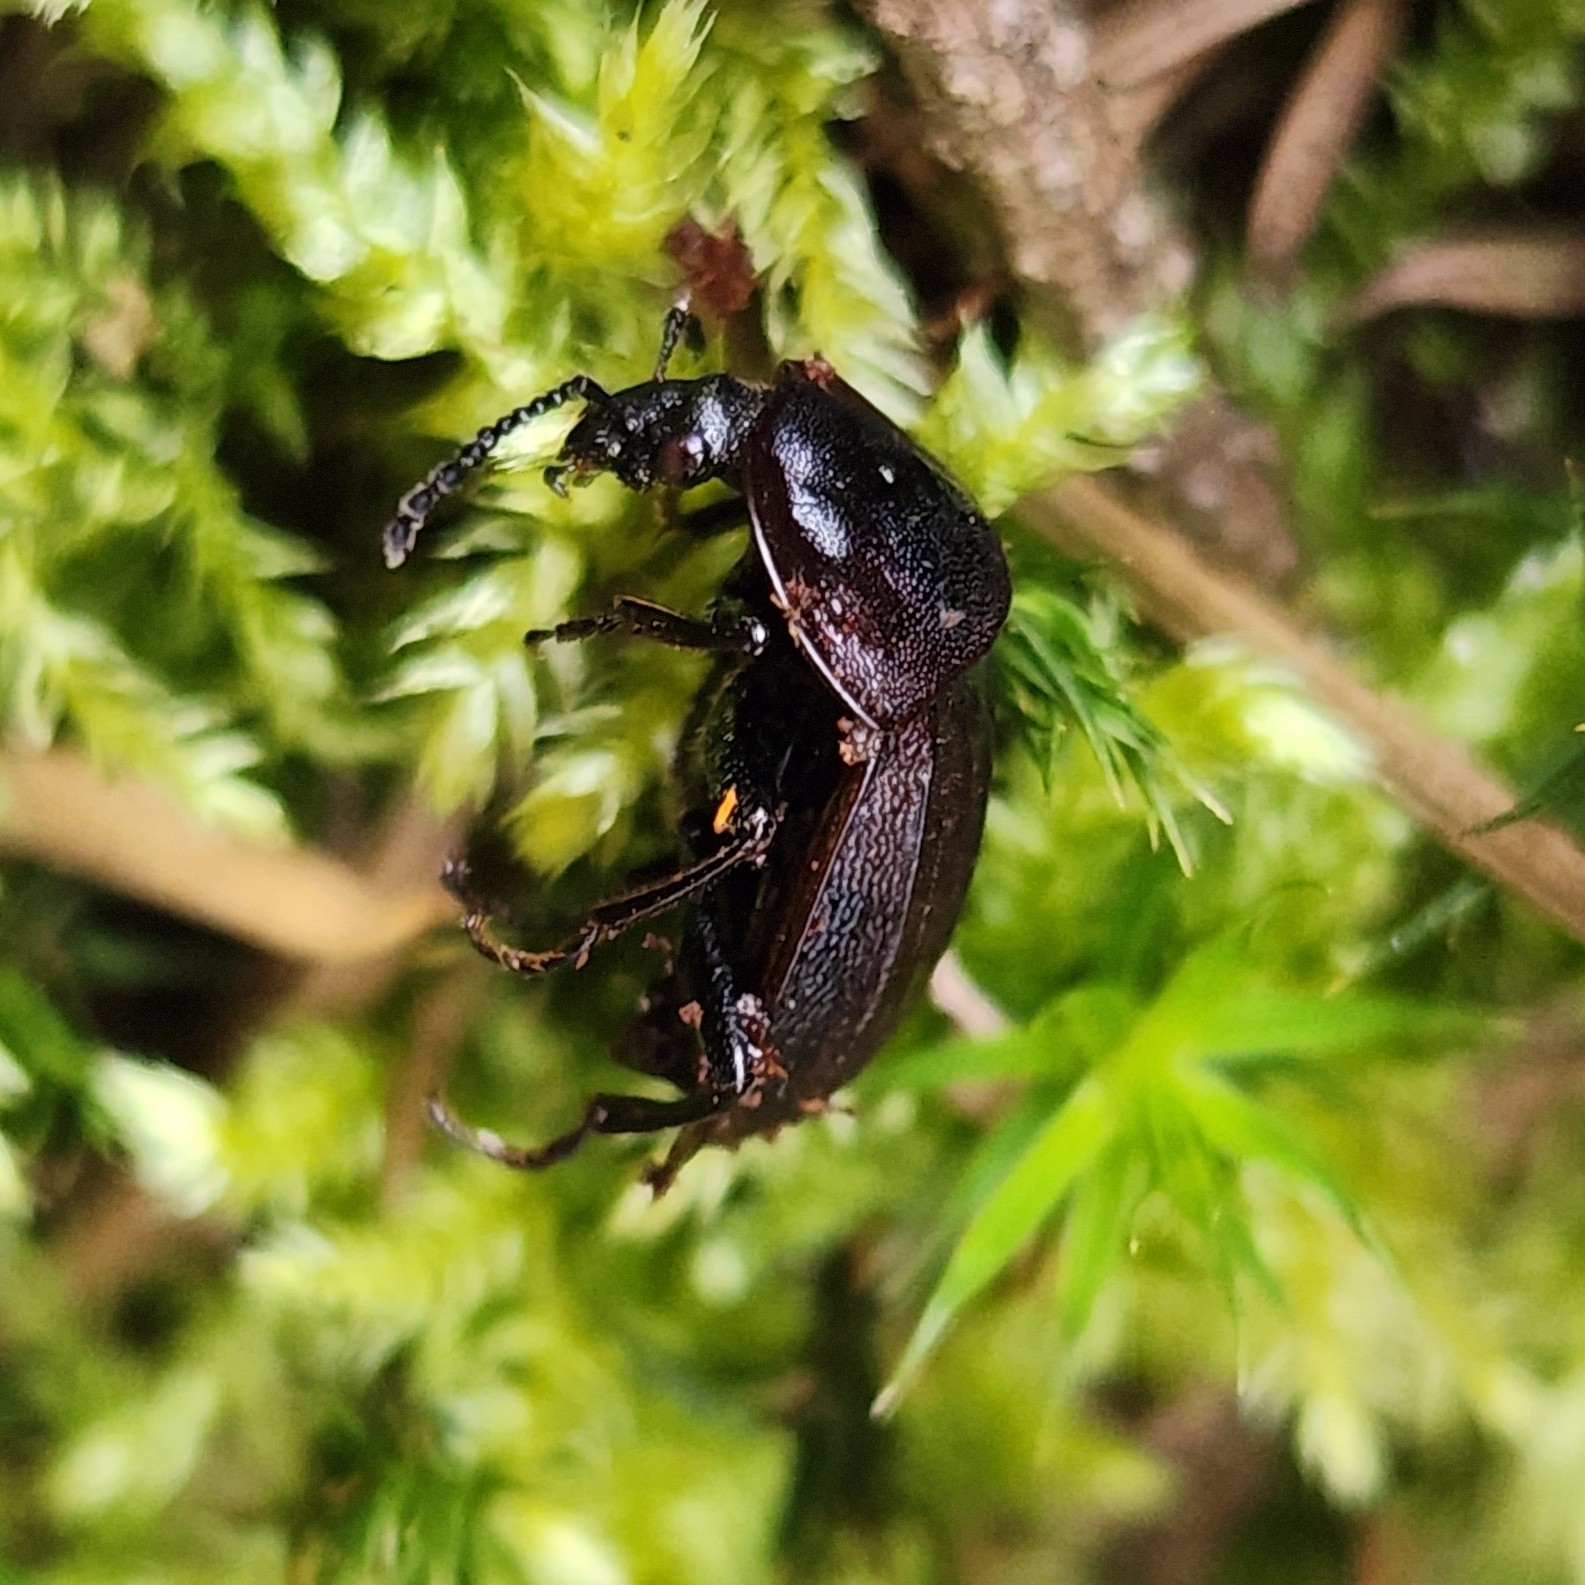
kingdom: Animalia
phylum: Arthropoda
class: Insecta
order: Coleoptera
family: Staphylinidae
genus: Silpha
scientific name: Silpha atrata
